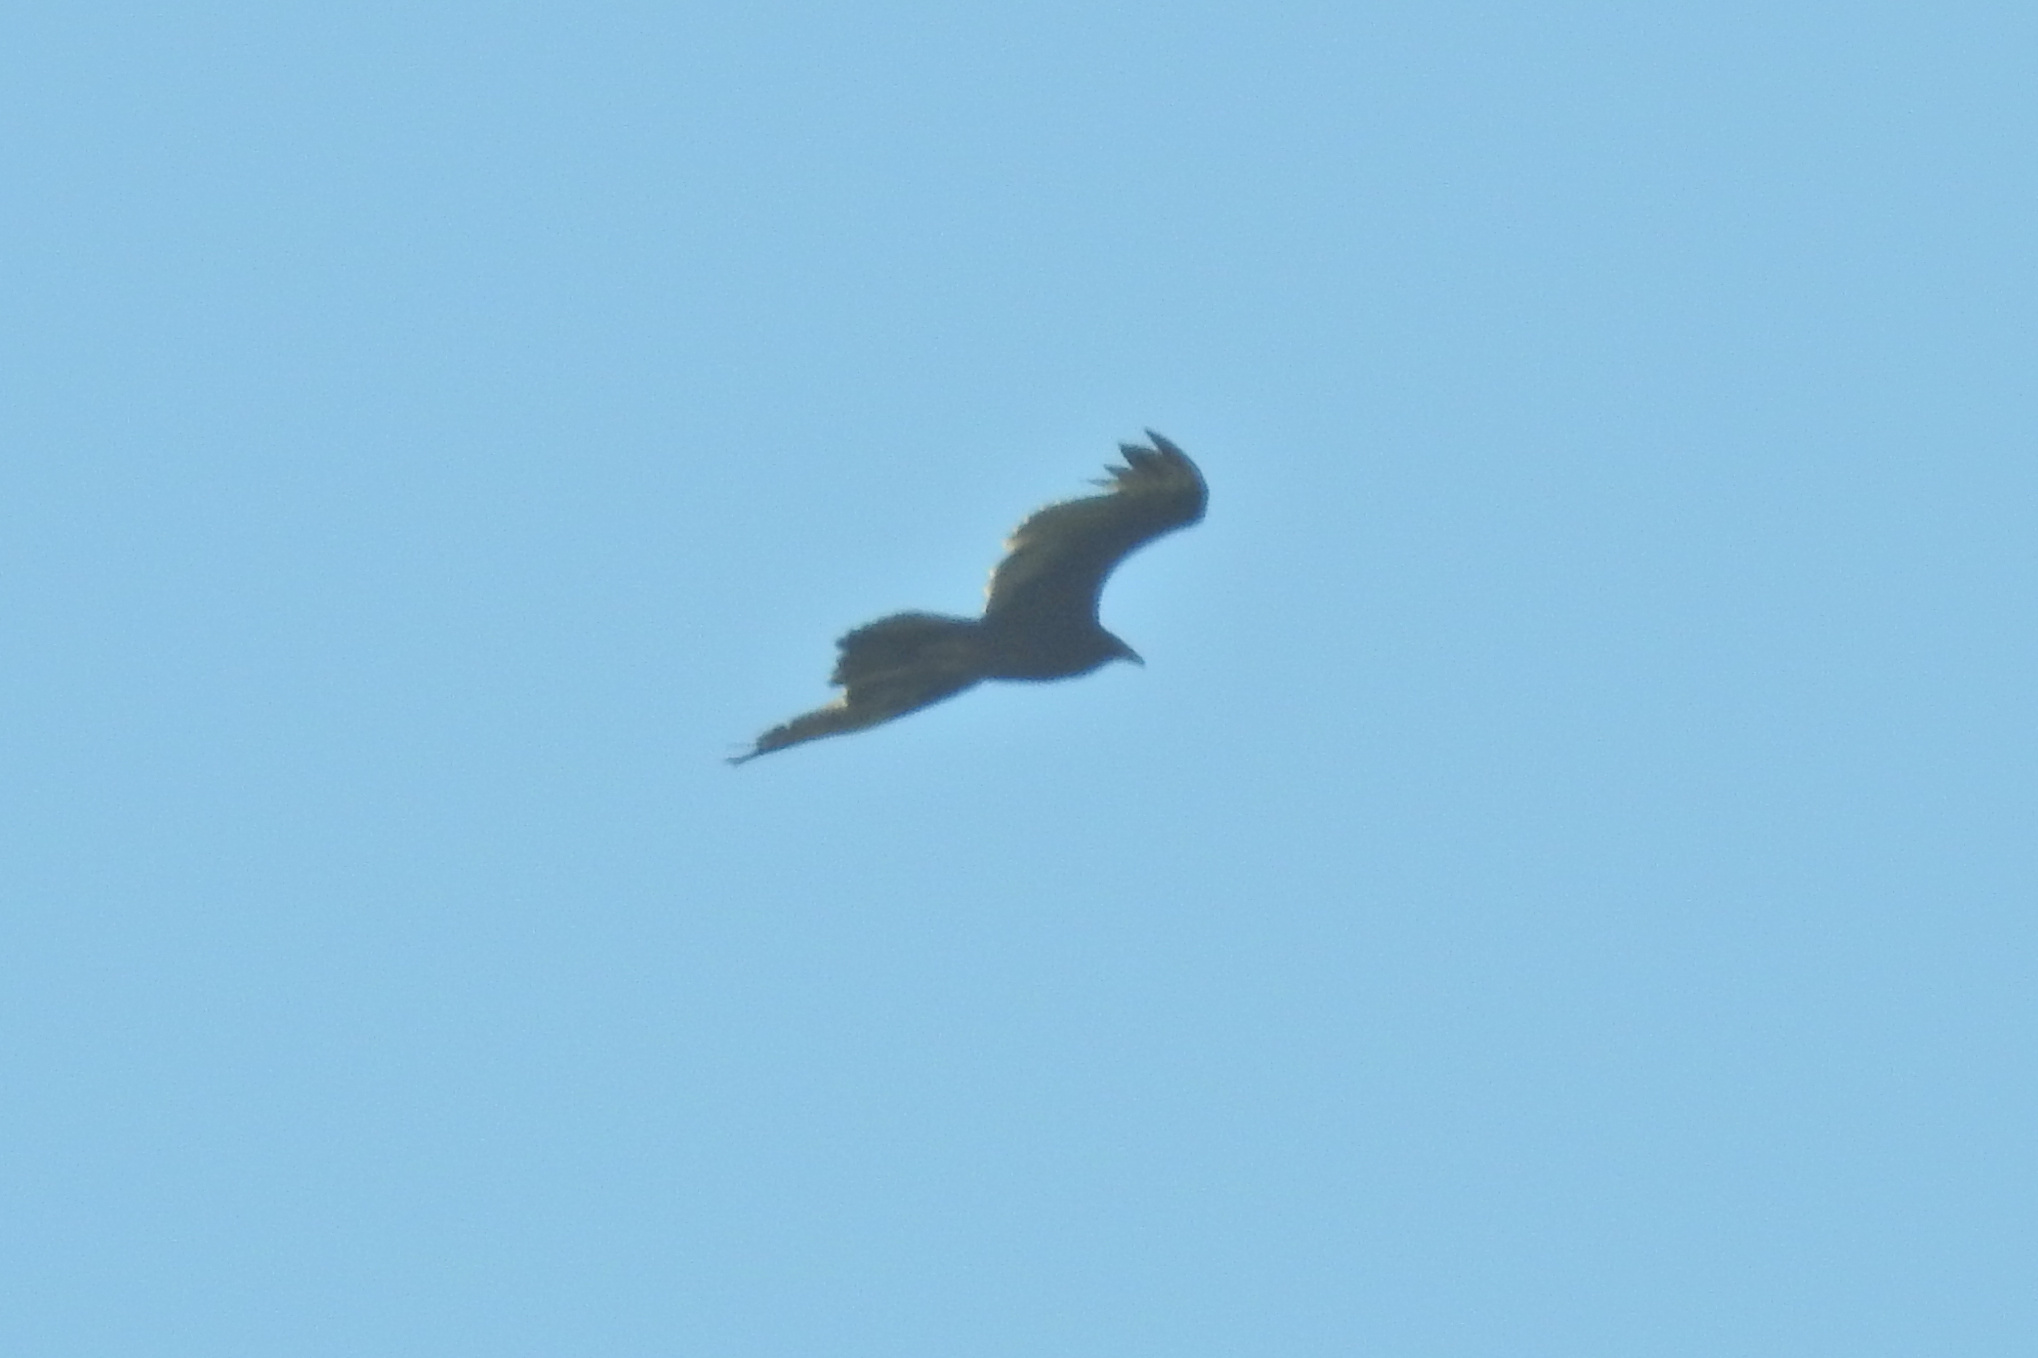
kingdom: Animalia
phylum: Chordata
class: Aves
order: Accipitriformes
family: Cathartidae
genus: Cathartes
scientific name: Cathartes aura
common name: Turkey vulture
